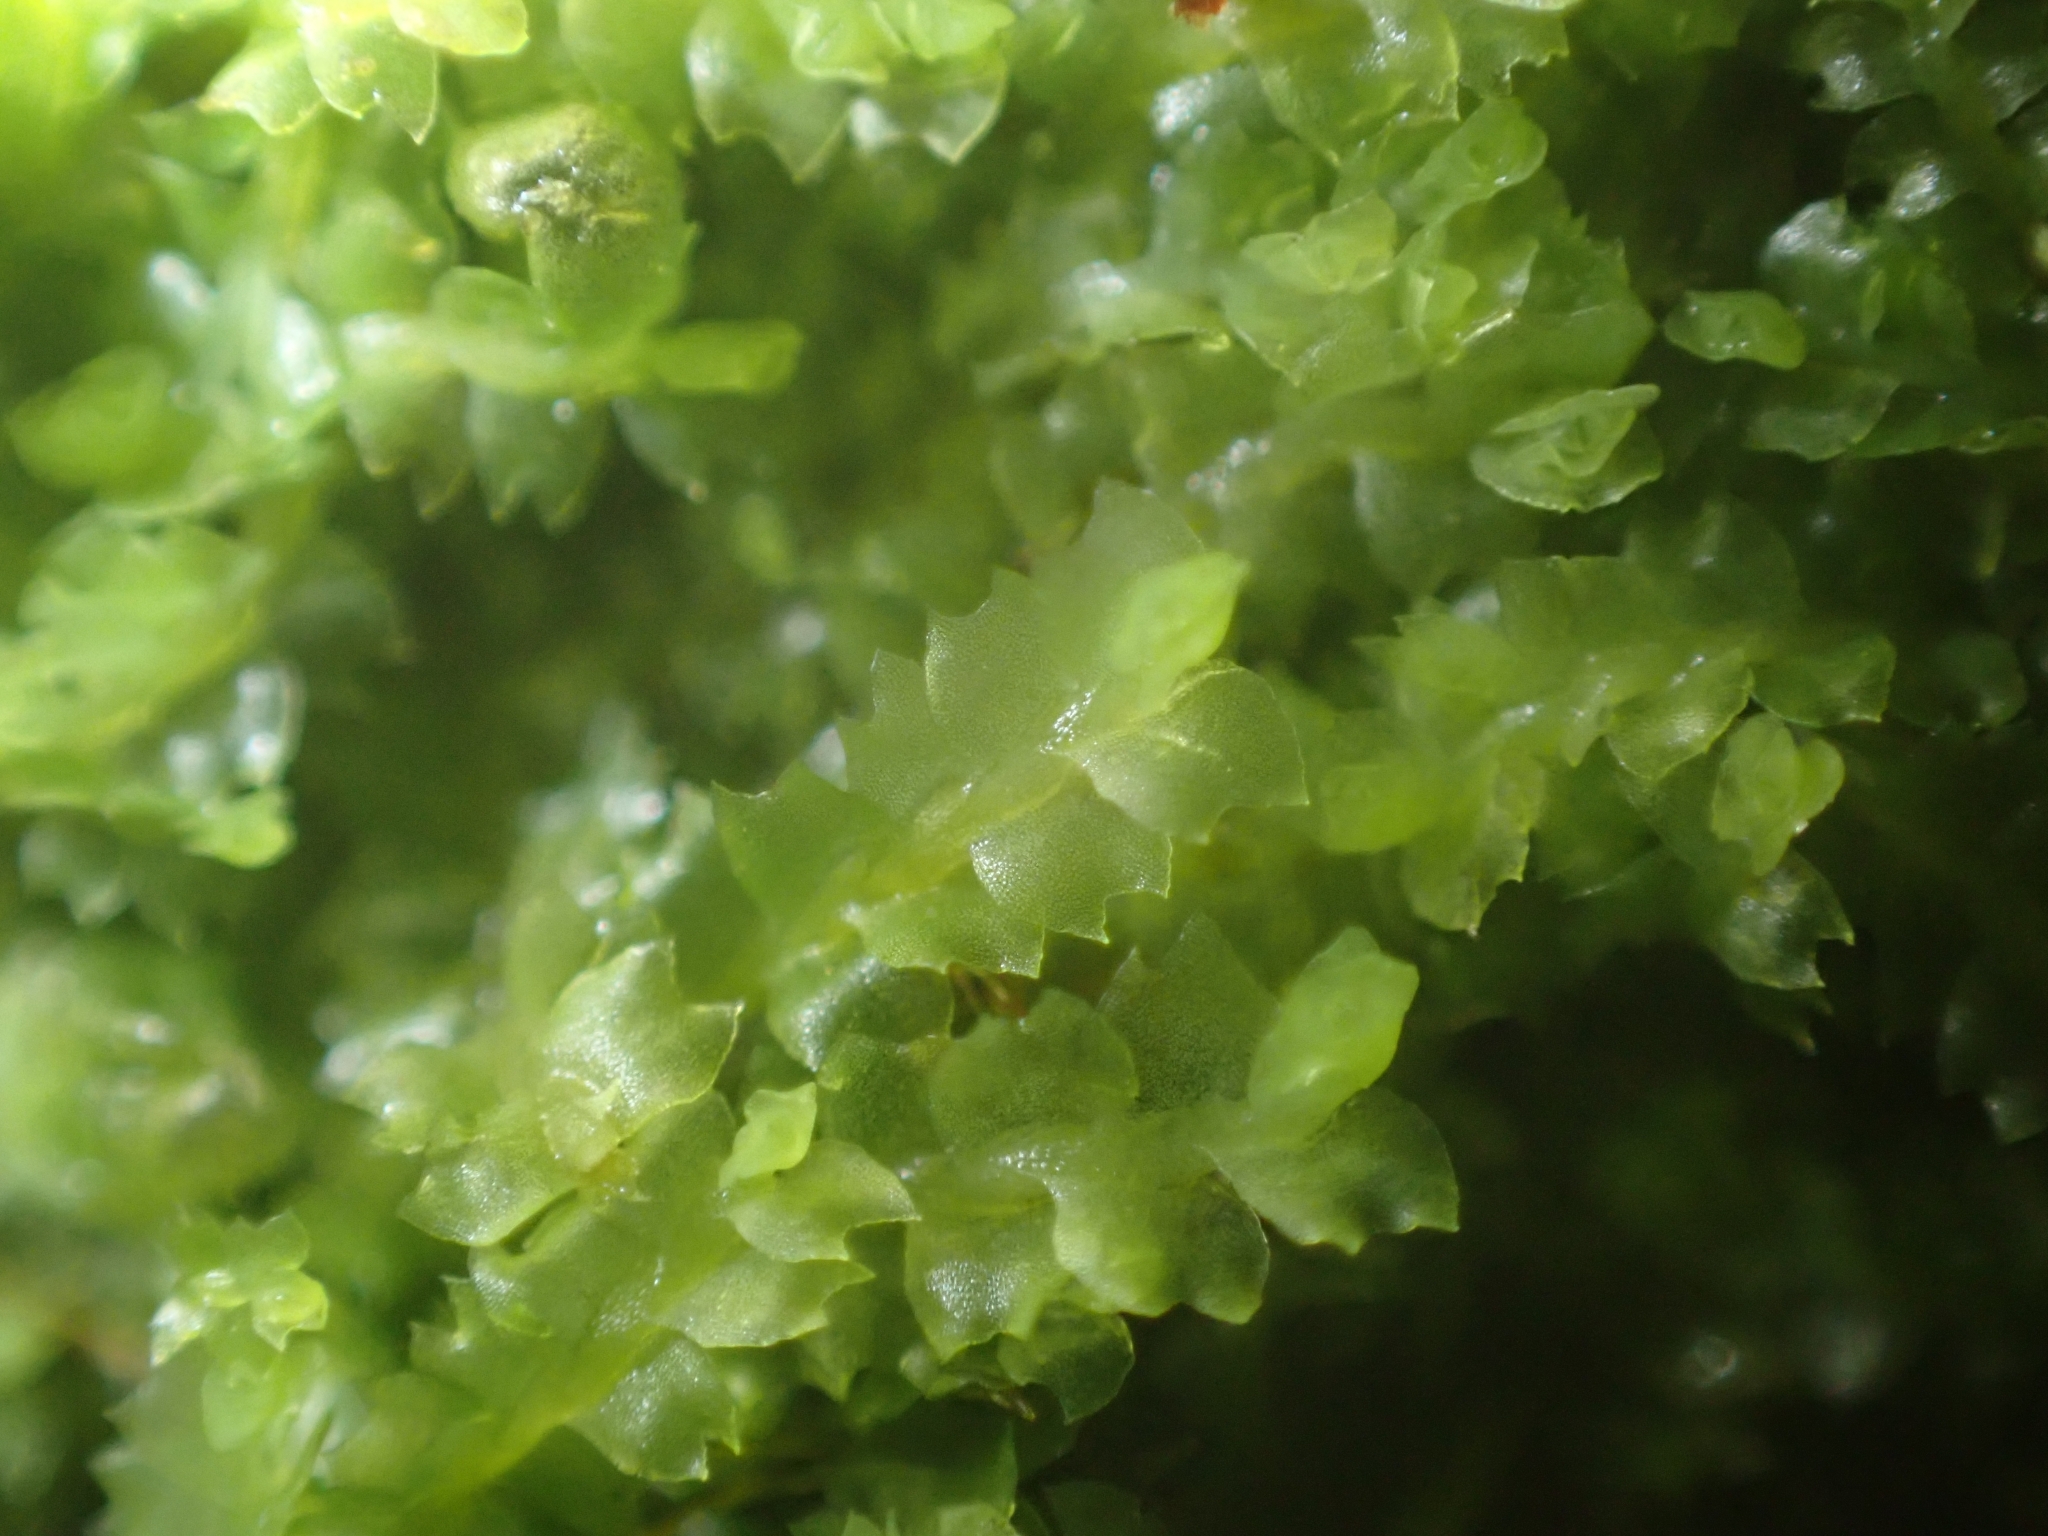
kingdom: Plantae
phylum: Marchantiophyta
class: Jungermanniopsida
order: Jungermanniales
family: Lophocoleaceae
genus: Lophocolea
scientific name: Lophocolea heterophylla
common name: Variable-leaved crestwort
